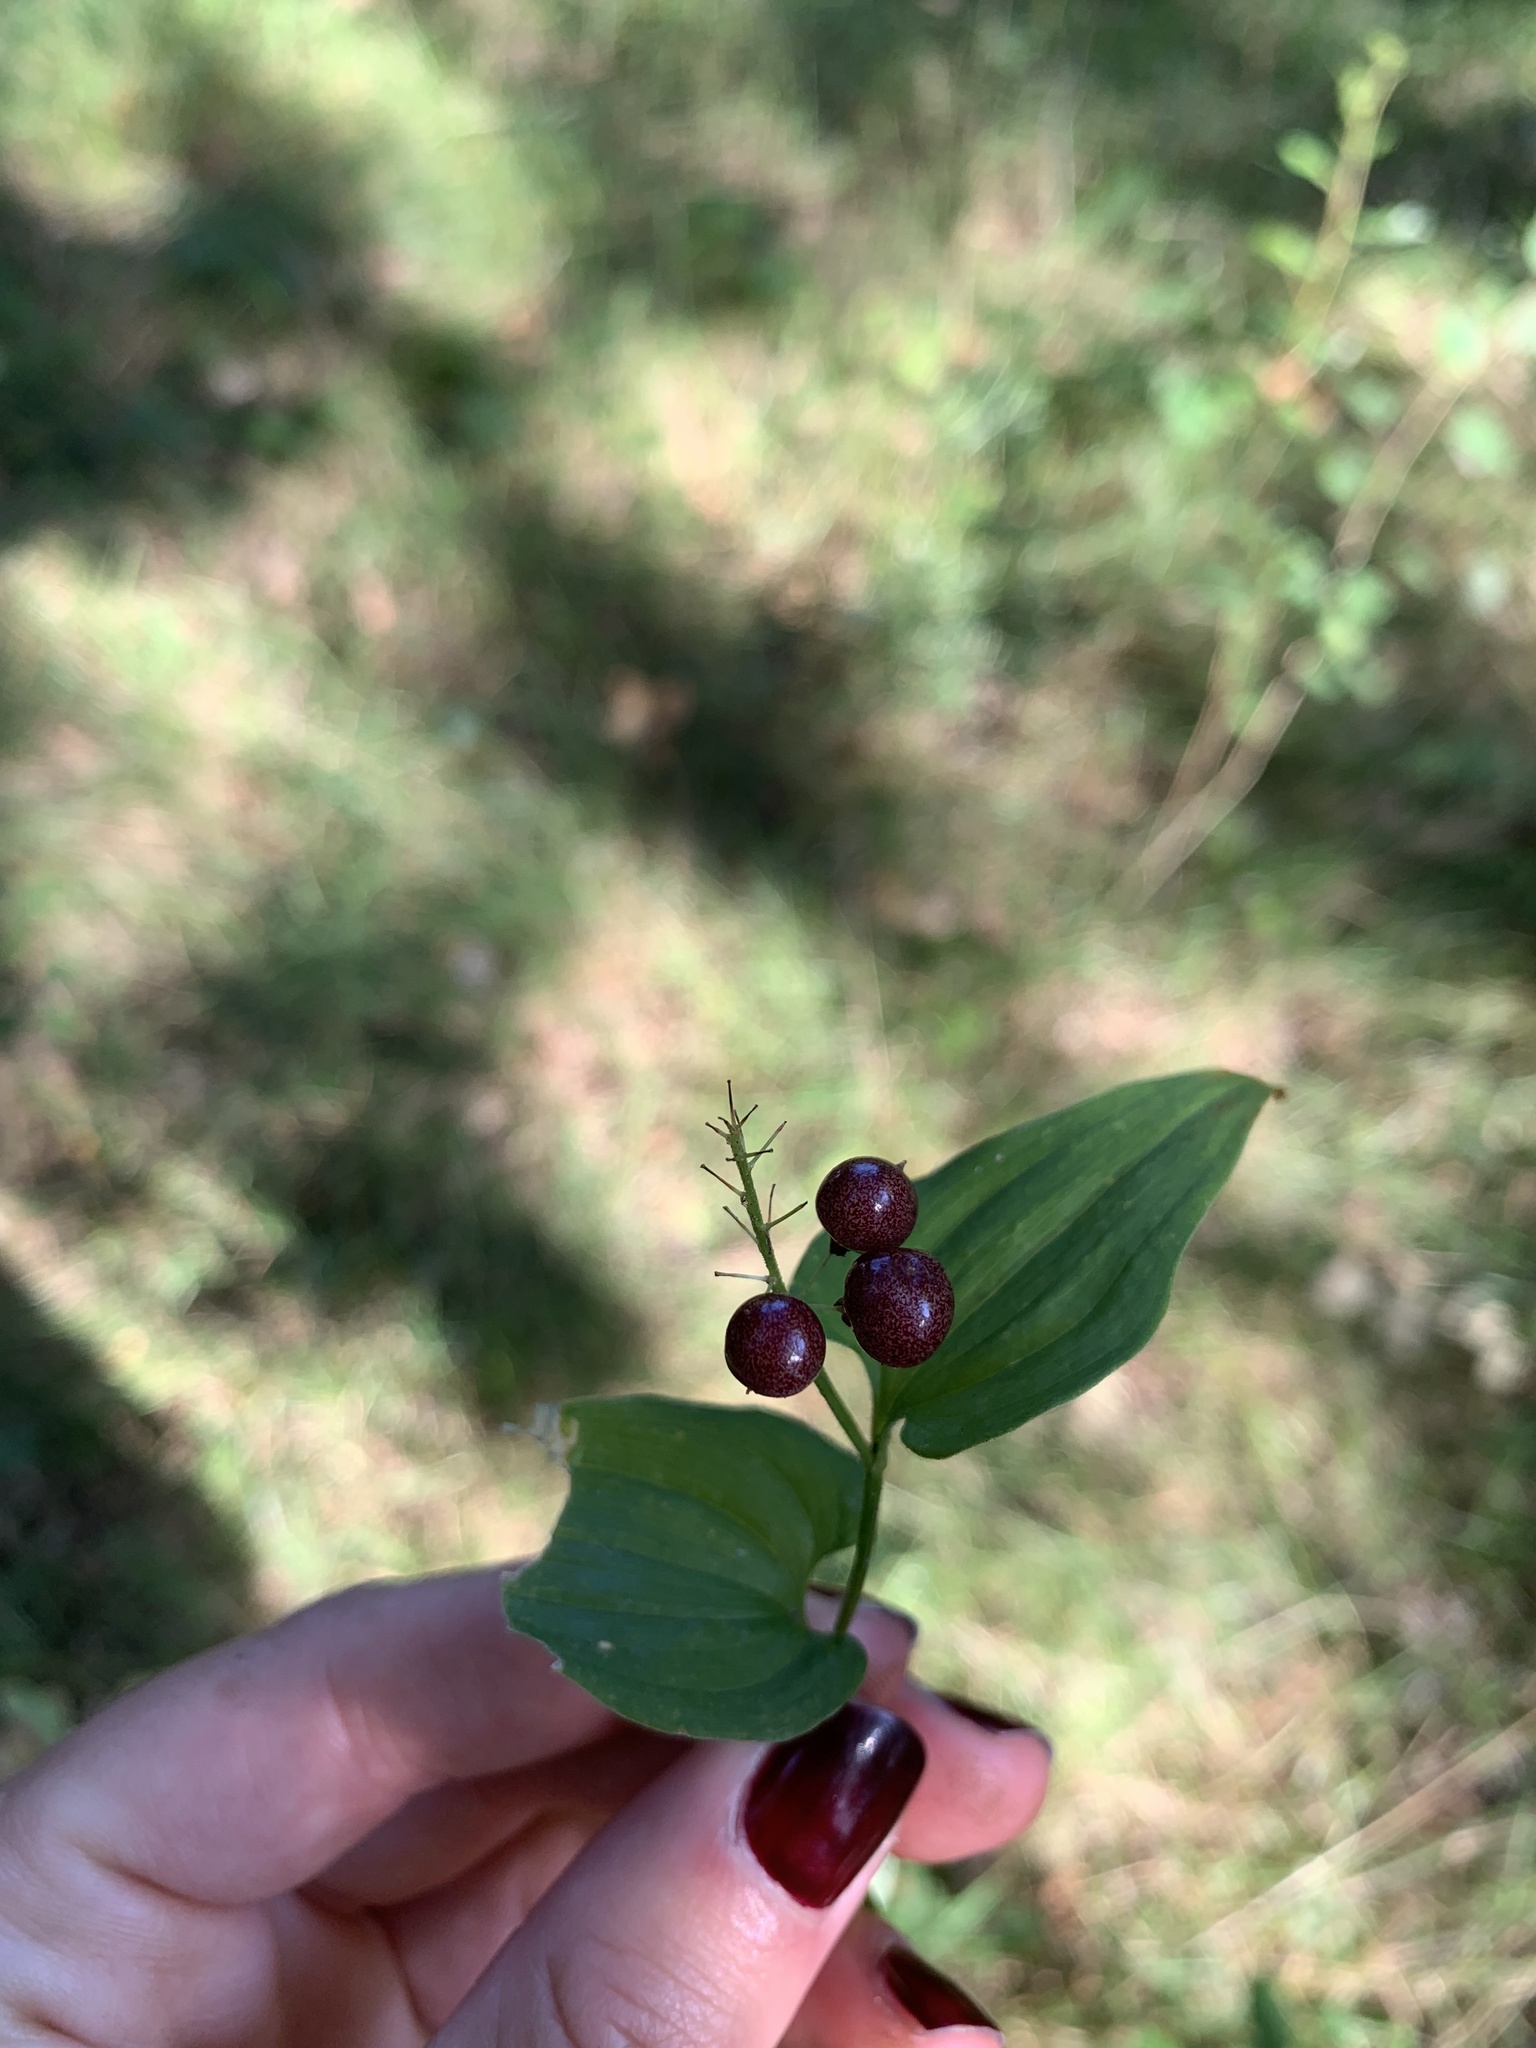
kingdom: Plantae
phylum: Tracheophyta
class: Liliopsida
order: Asparagales
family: Asparagaceae
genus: Maianthemum
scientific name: Maianthemum bifolium
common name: May lily
